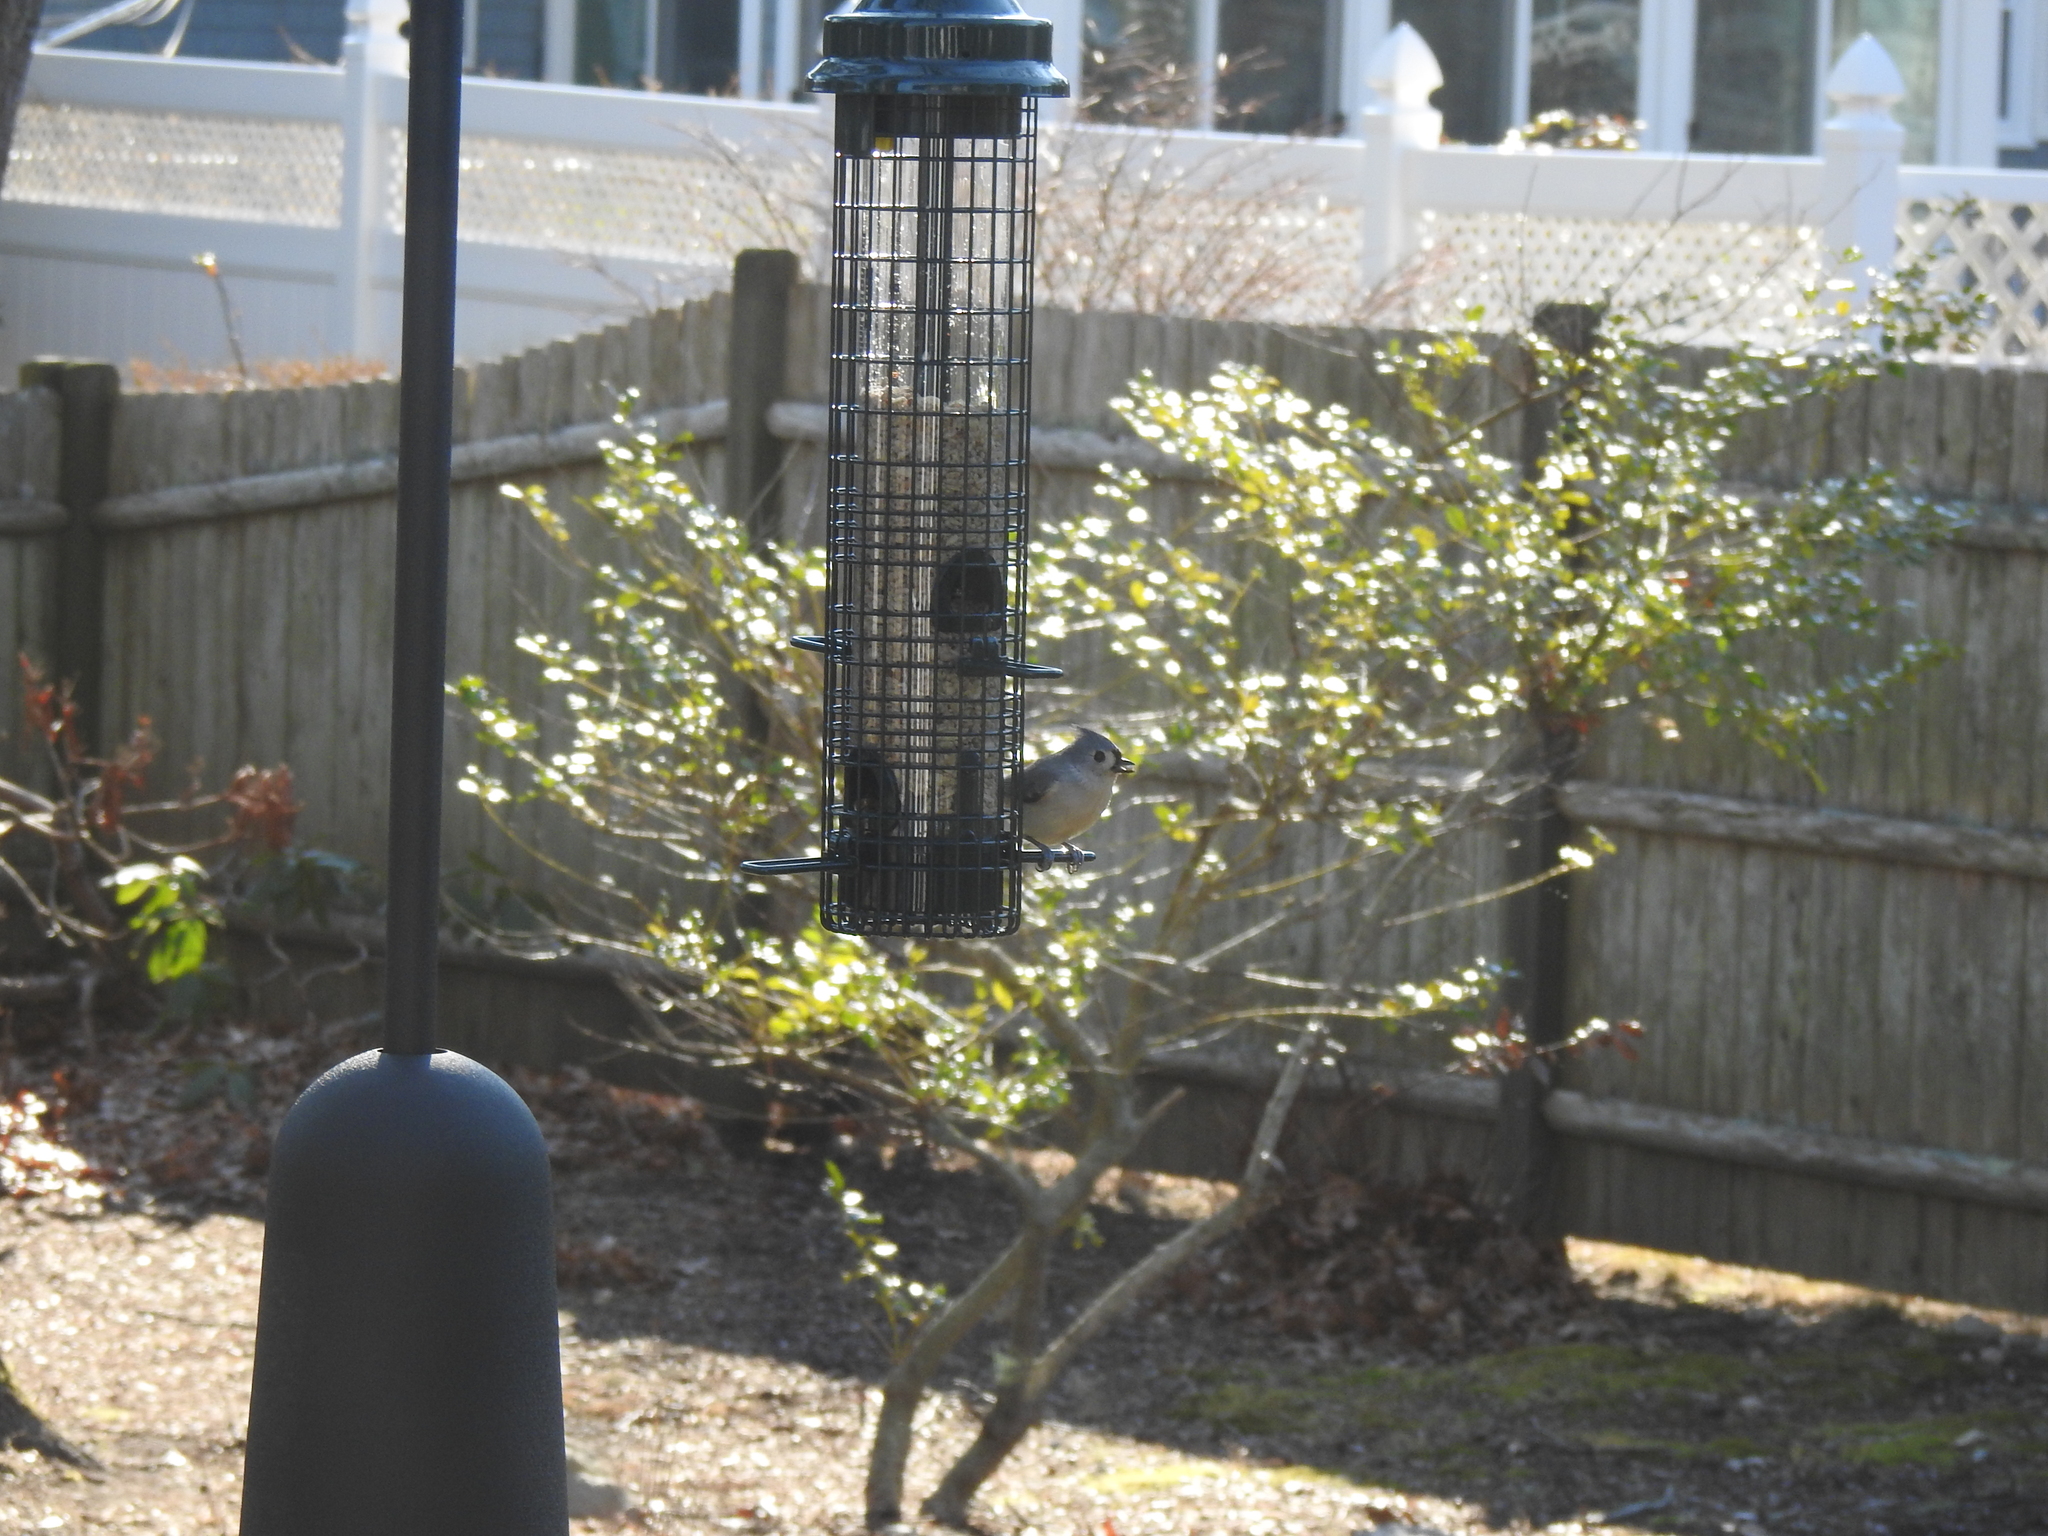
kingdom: Animalia
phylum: Chordata
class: Aves
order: Passeriformes
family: Paridae
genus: Baeolophus
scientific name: Baeolophus bicolor
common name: Tufted titmouse
